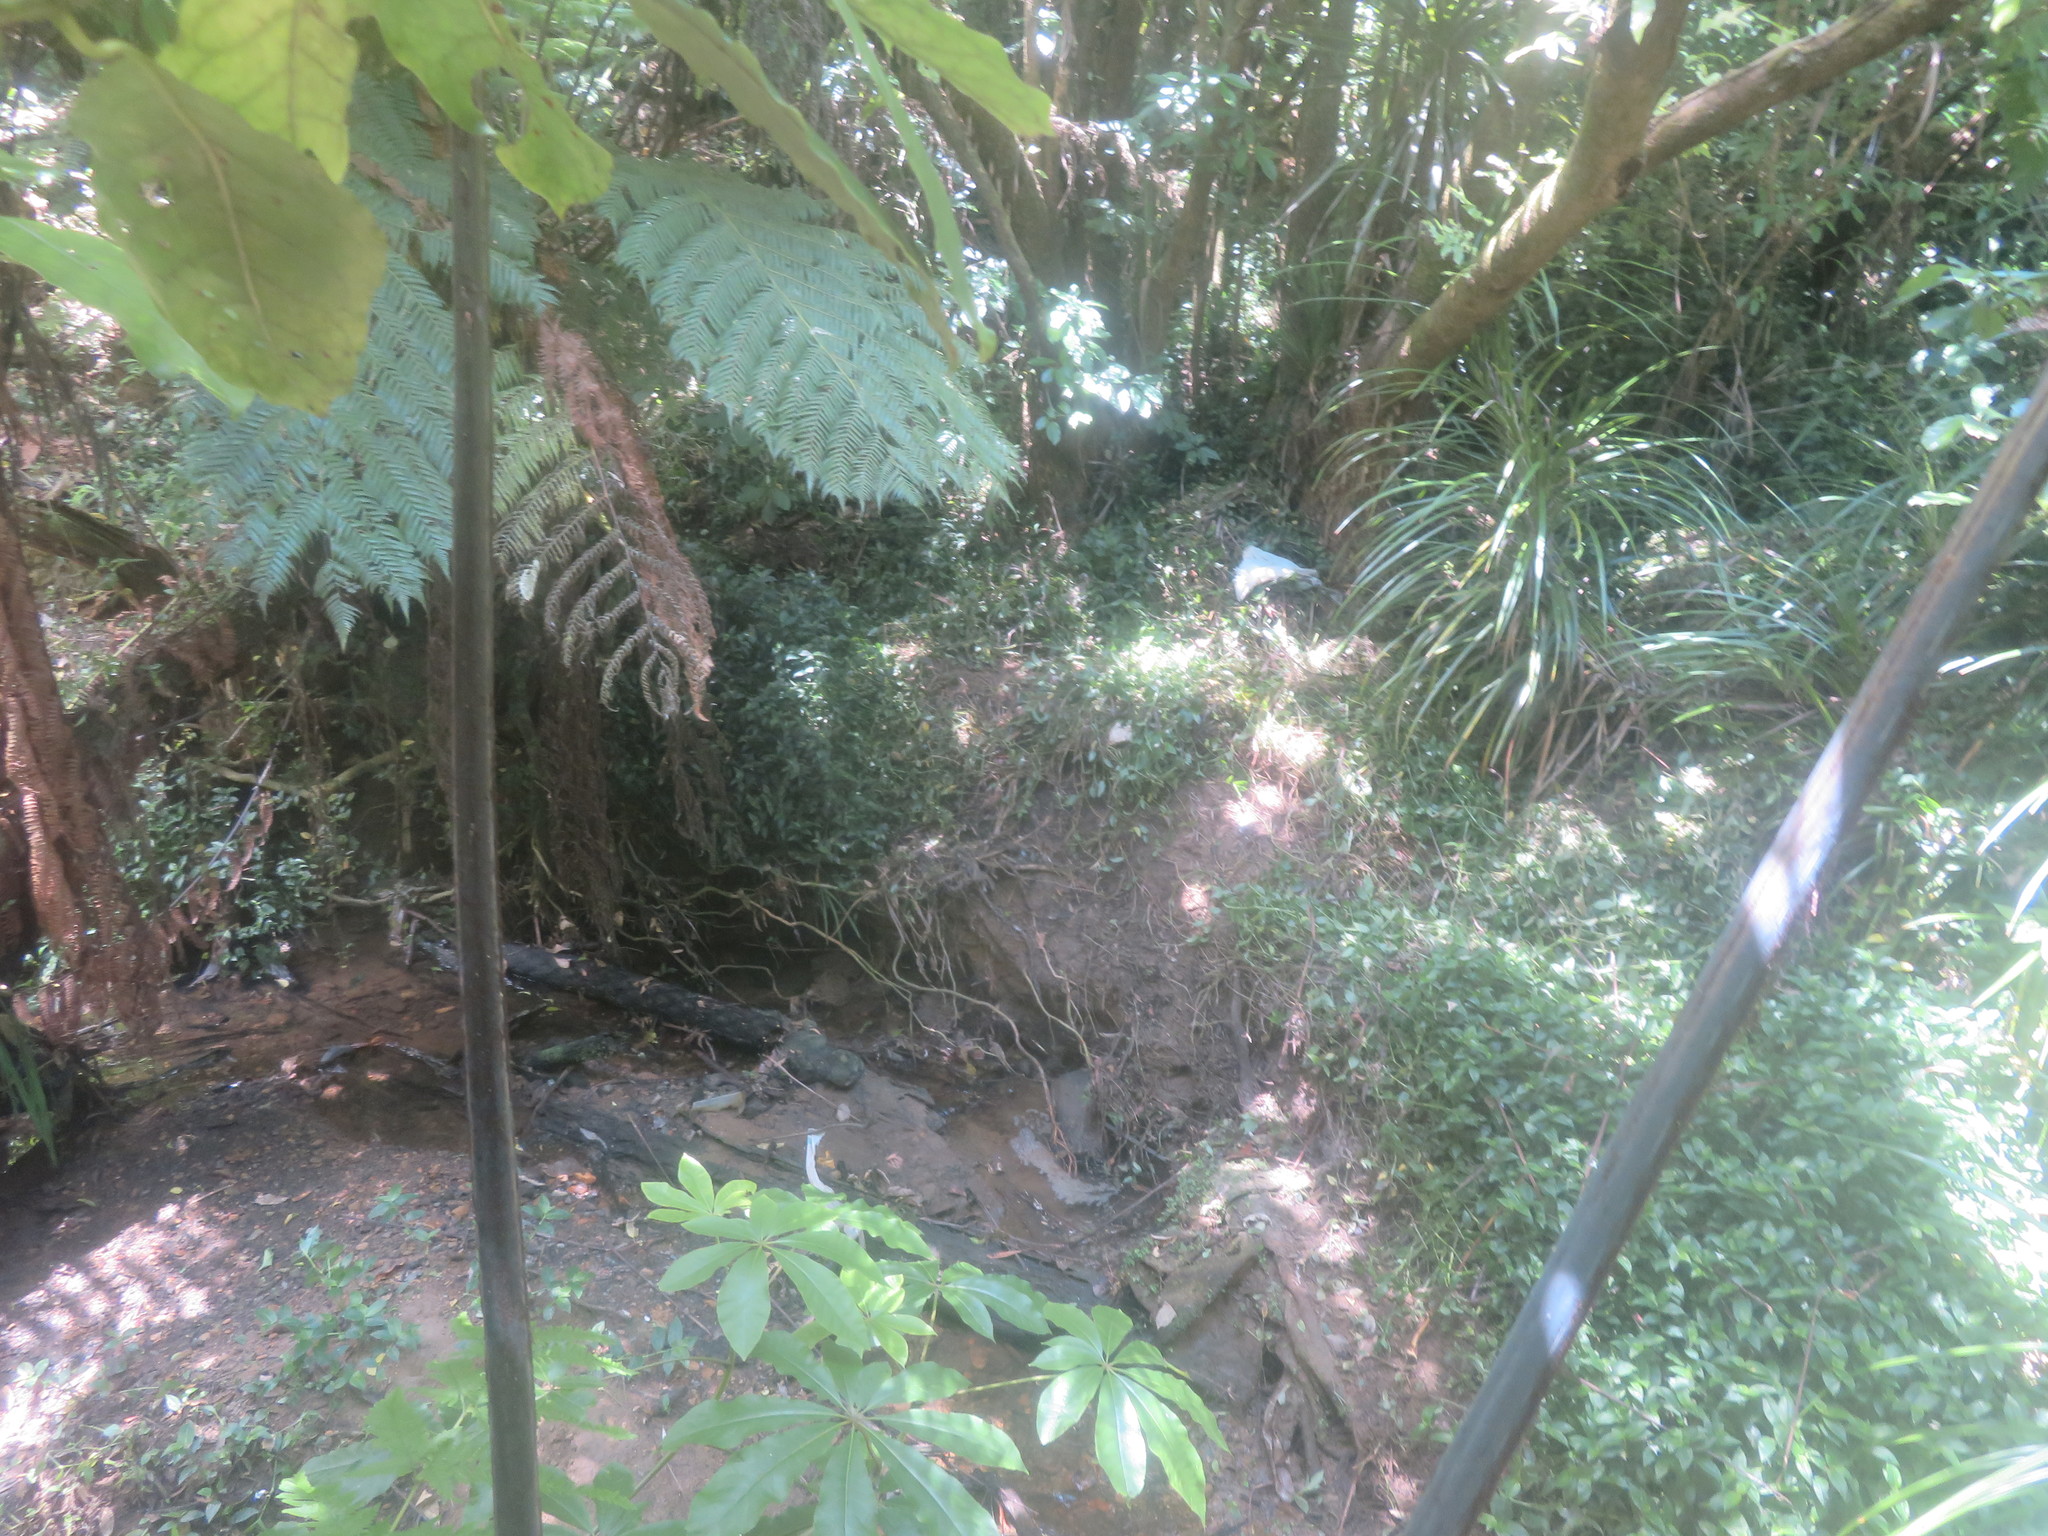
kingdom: Plantae
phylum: Tracheophyta
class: Liliopsida
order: Commelinales
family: Commelinaceae
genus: Tradescantia
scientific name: Tradescantia fluminensis
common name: Wandering-jew
